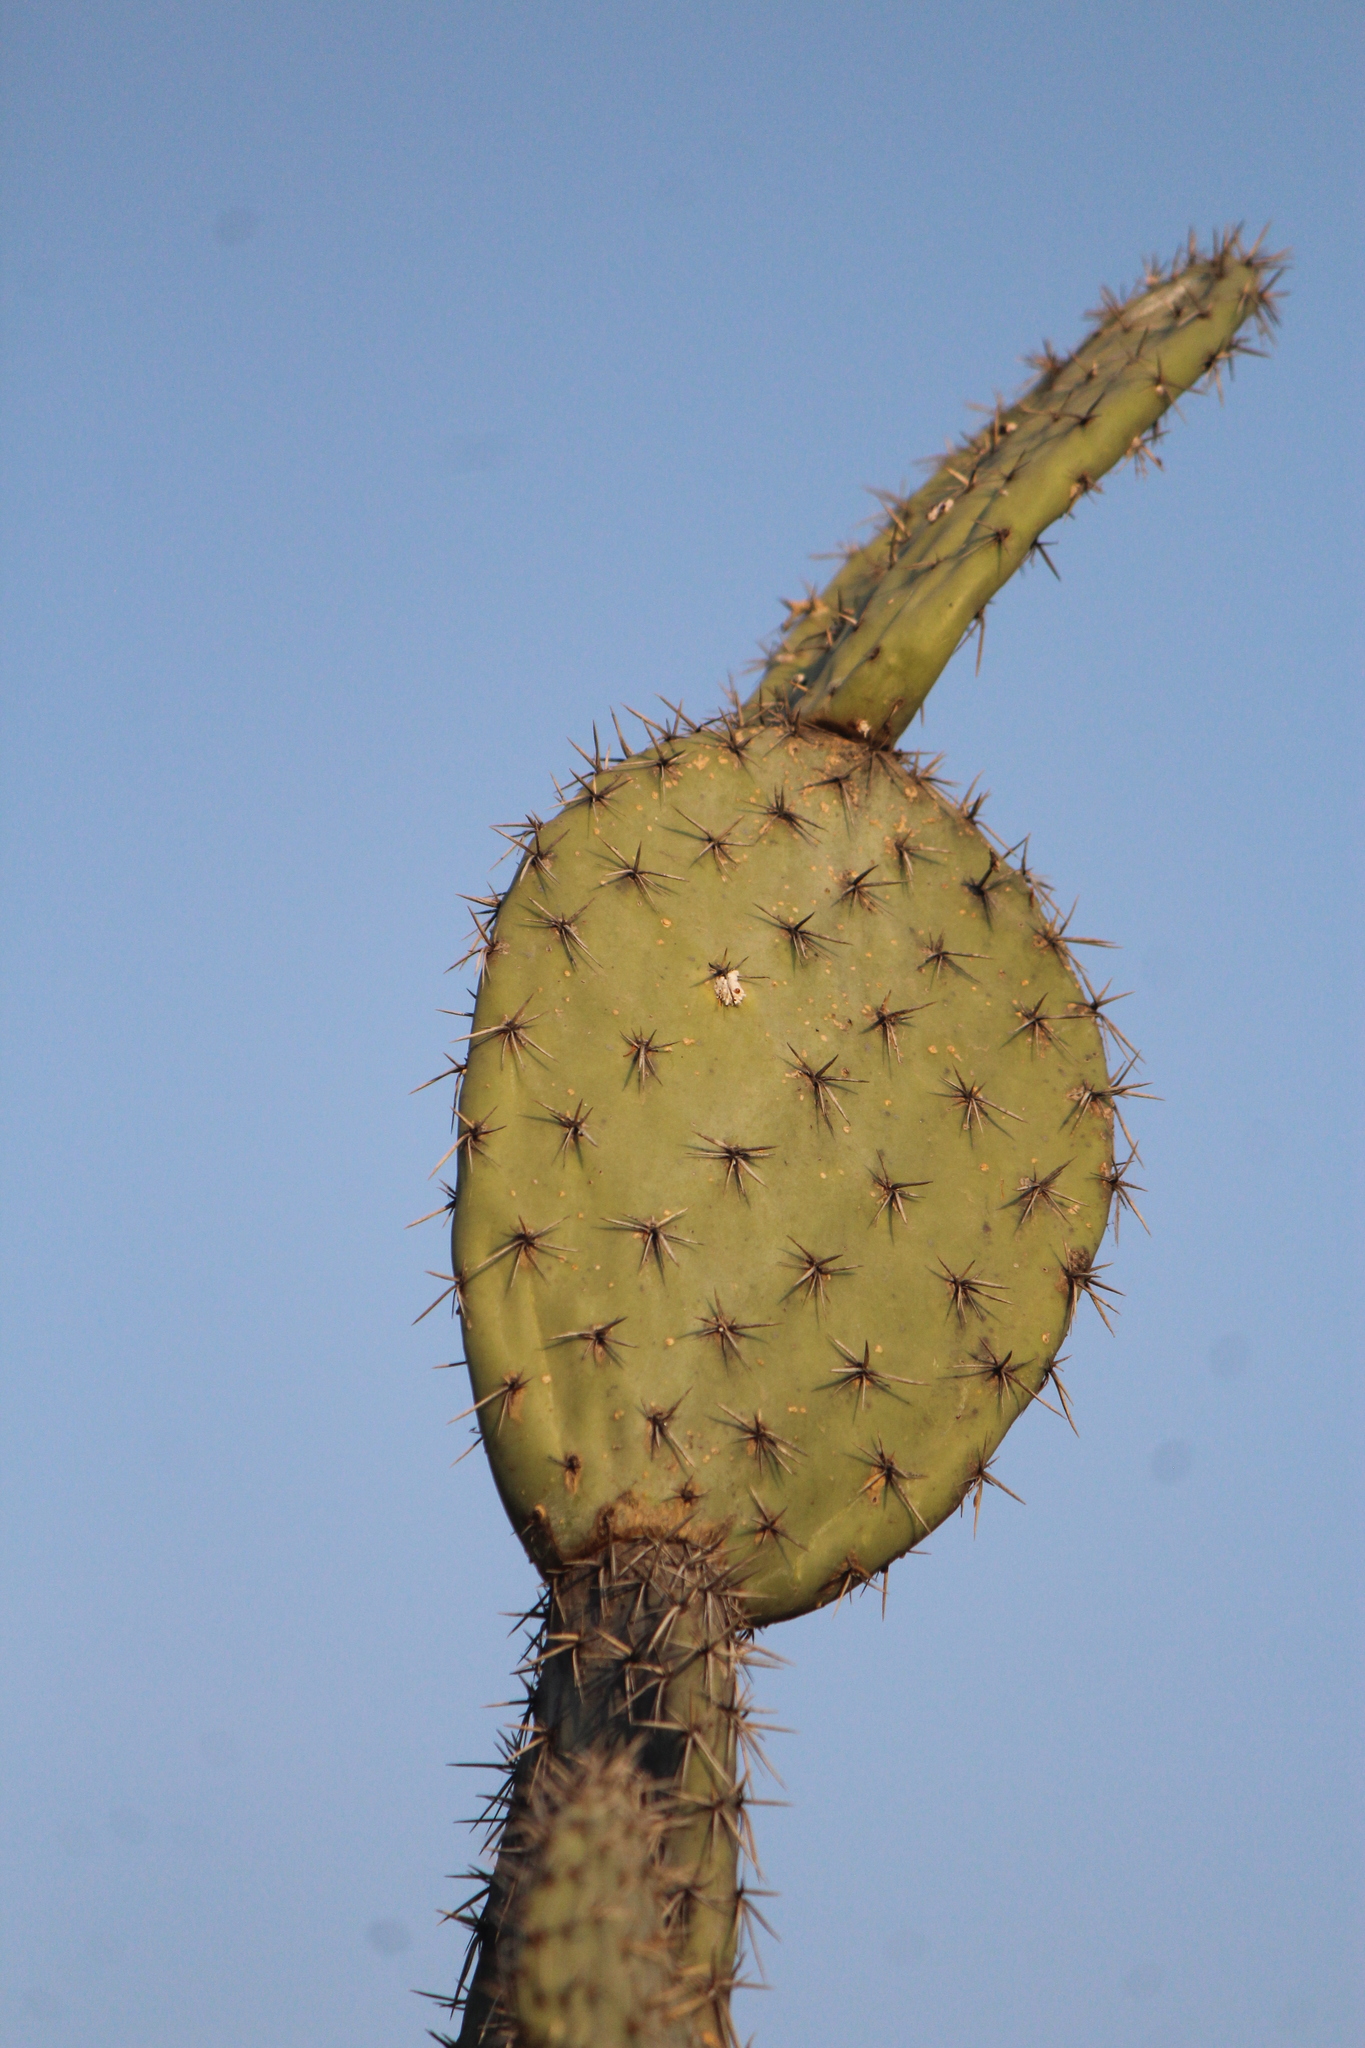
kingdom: Plantae
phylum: Tracheophyta
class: Magnoliopsida
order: Caryophyllales
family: Cactaceae
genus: Opuntia
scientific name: Opuntia streptacantha
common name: Gracemere-pear
